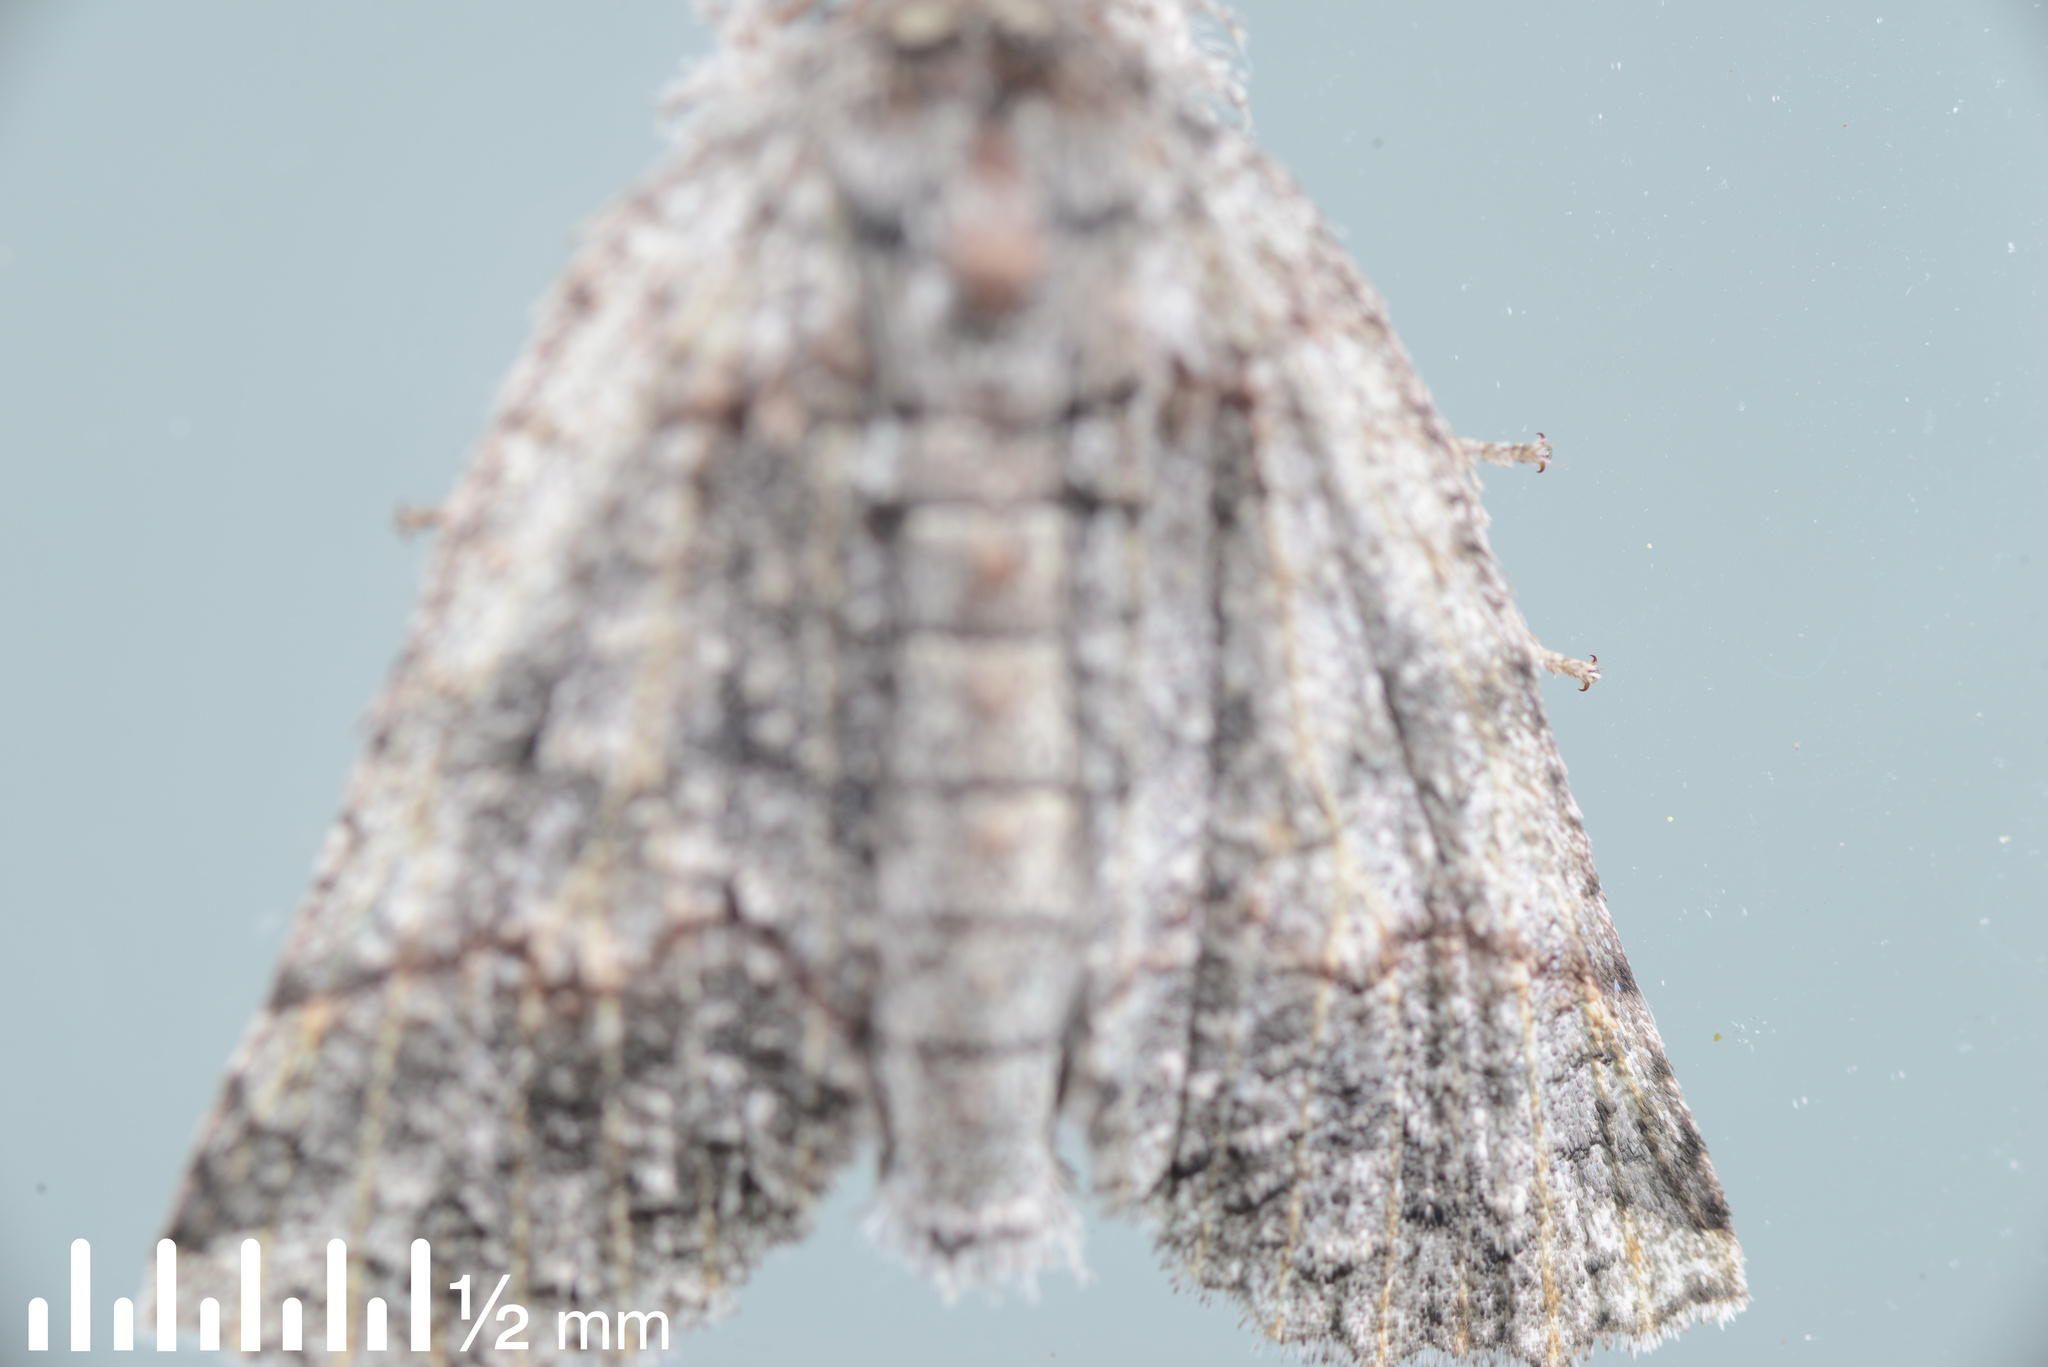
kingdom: Animalia
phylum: Arthropoda
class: Insecta
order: Lepidoptera
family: Geometridae
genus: Declana
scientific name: Declana floccosa
